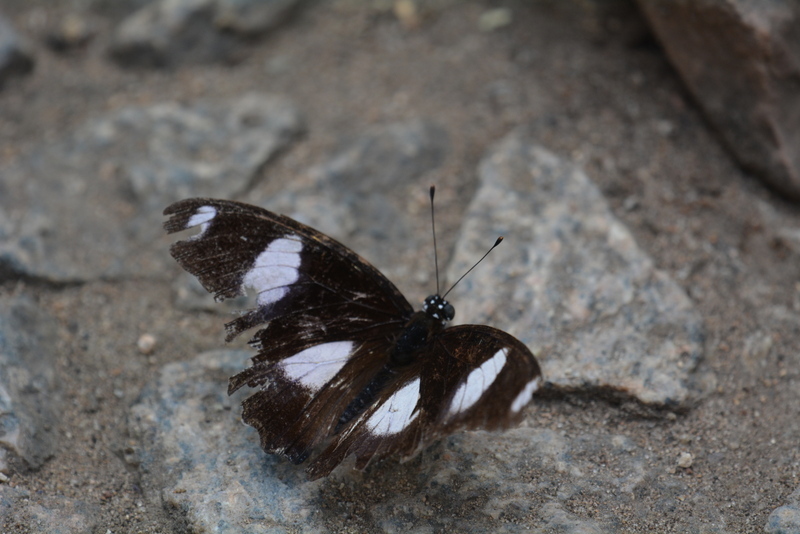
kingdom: Animalia
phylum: Arthropoda
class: Insecta
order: Lepidoptera
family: Nymphalidae
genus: Hypolimnas
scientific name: Hypolimnas misippus
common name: False plain tiger
